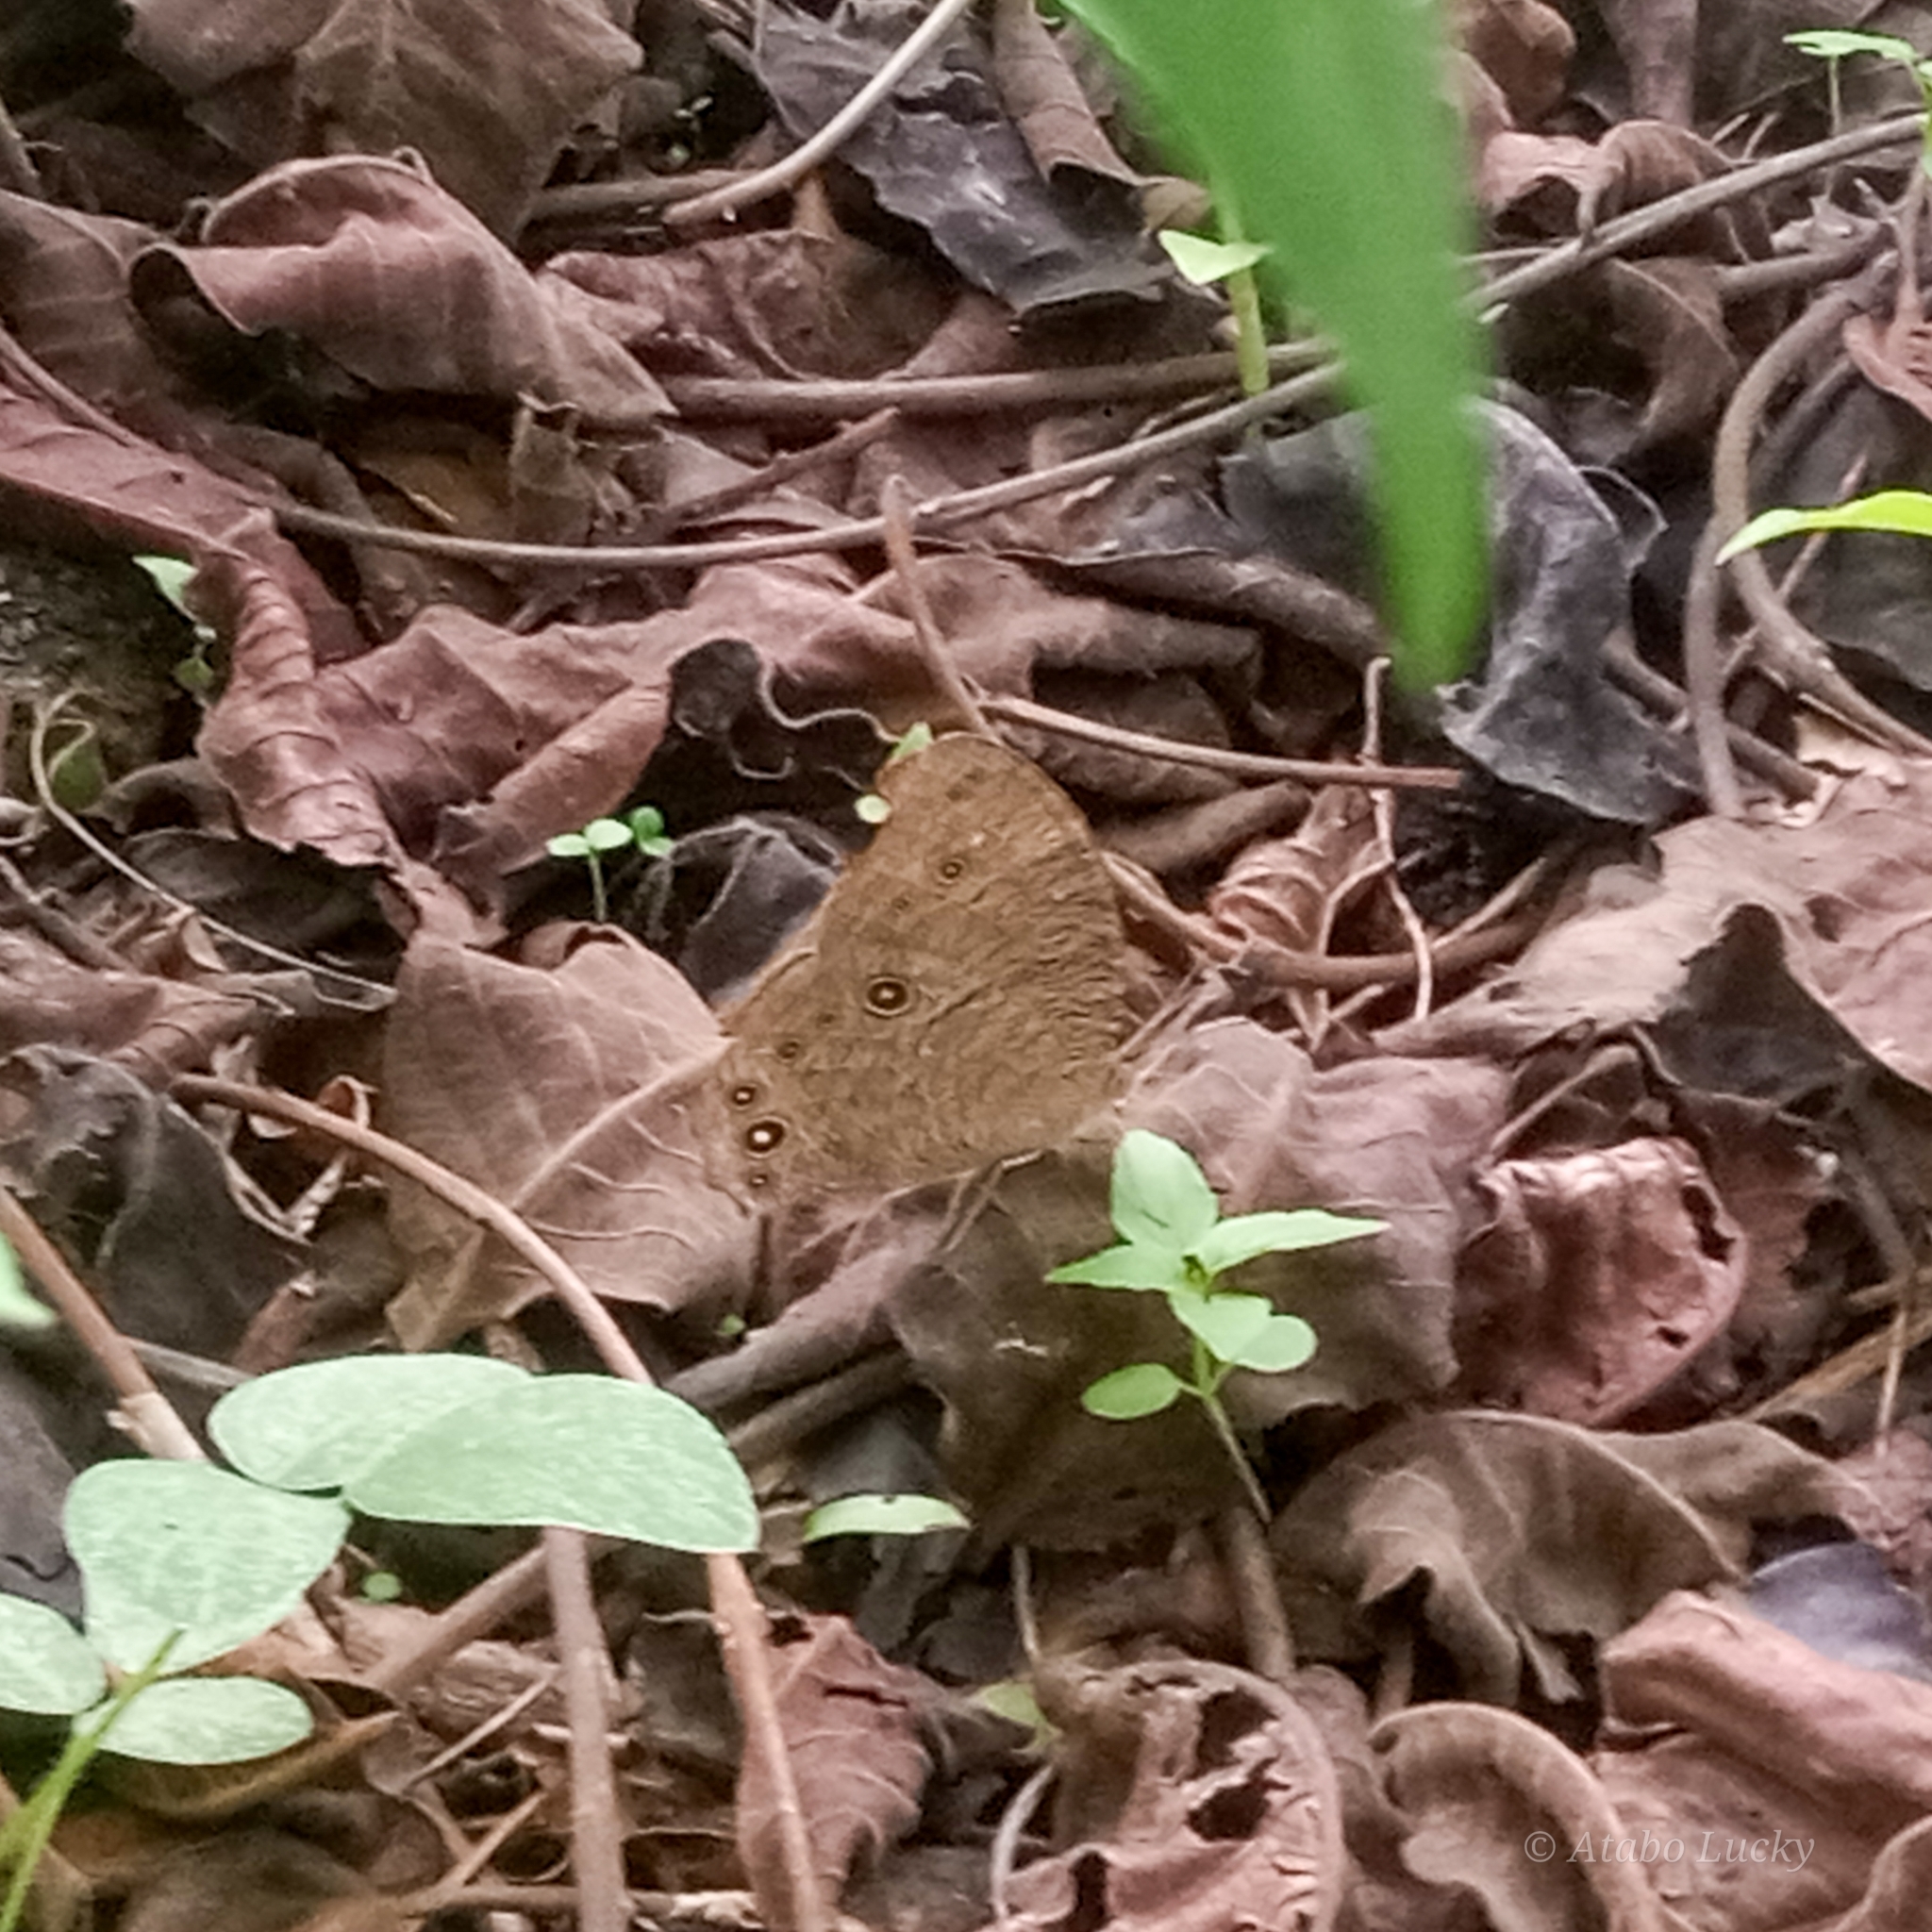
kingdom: Animalia
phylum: Arthropoda
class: Insecta
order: Lepidoptera
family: Nymphalidae
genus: Melanitis
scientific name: Melanitis leda
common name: Twilight brown
